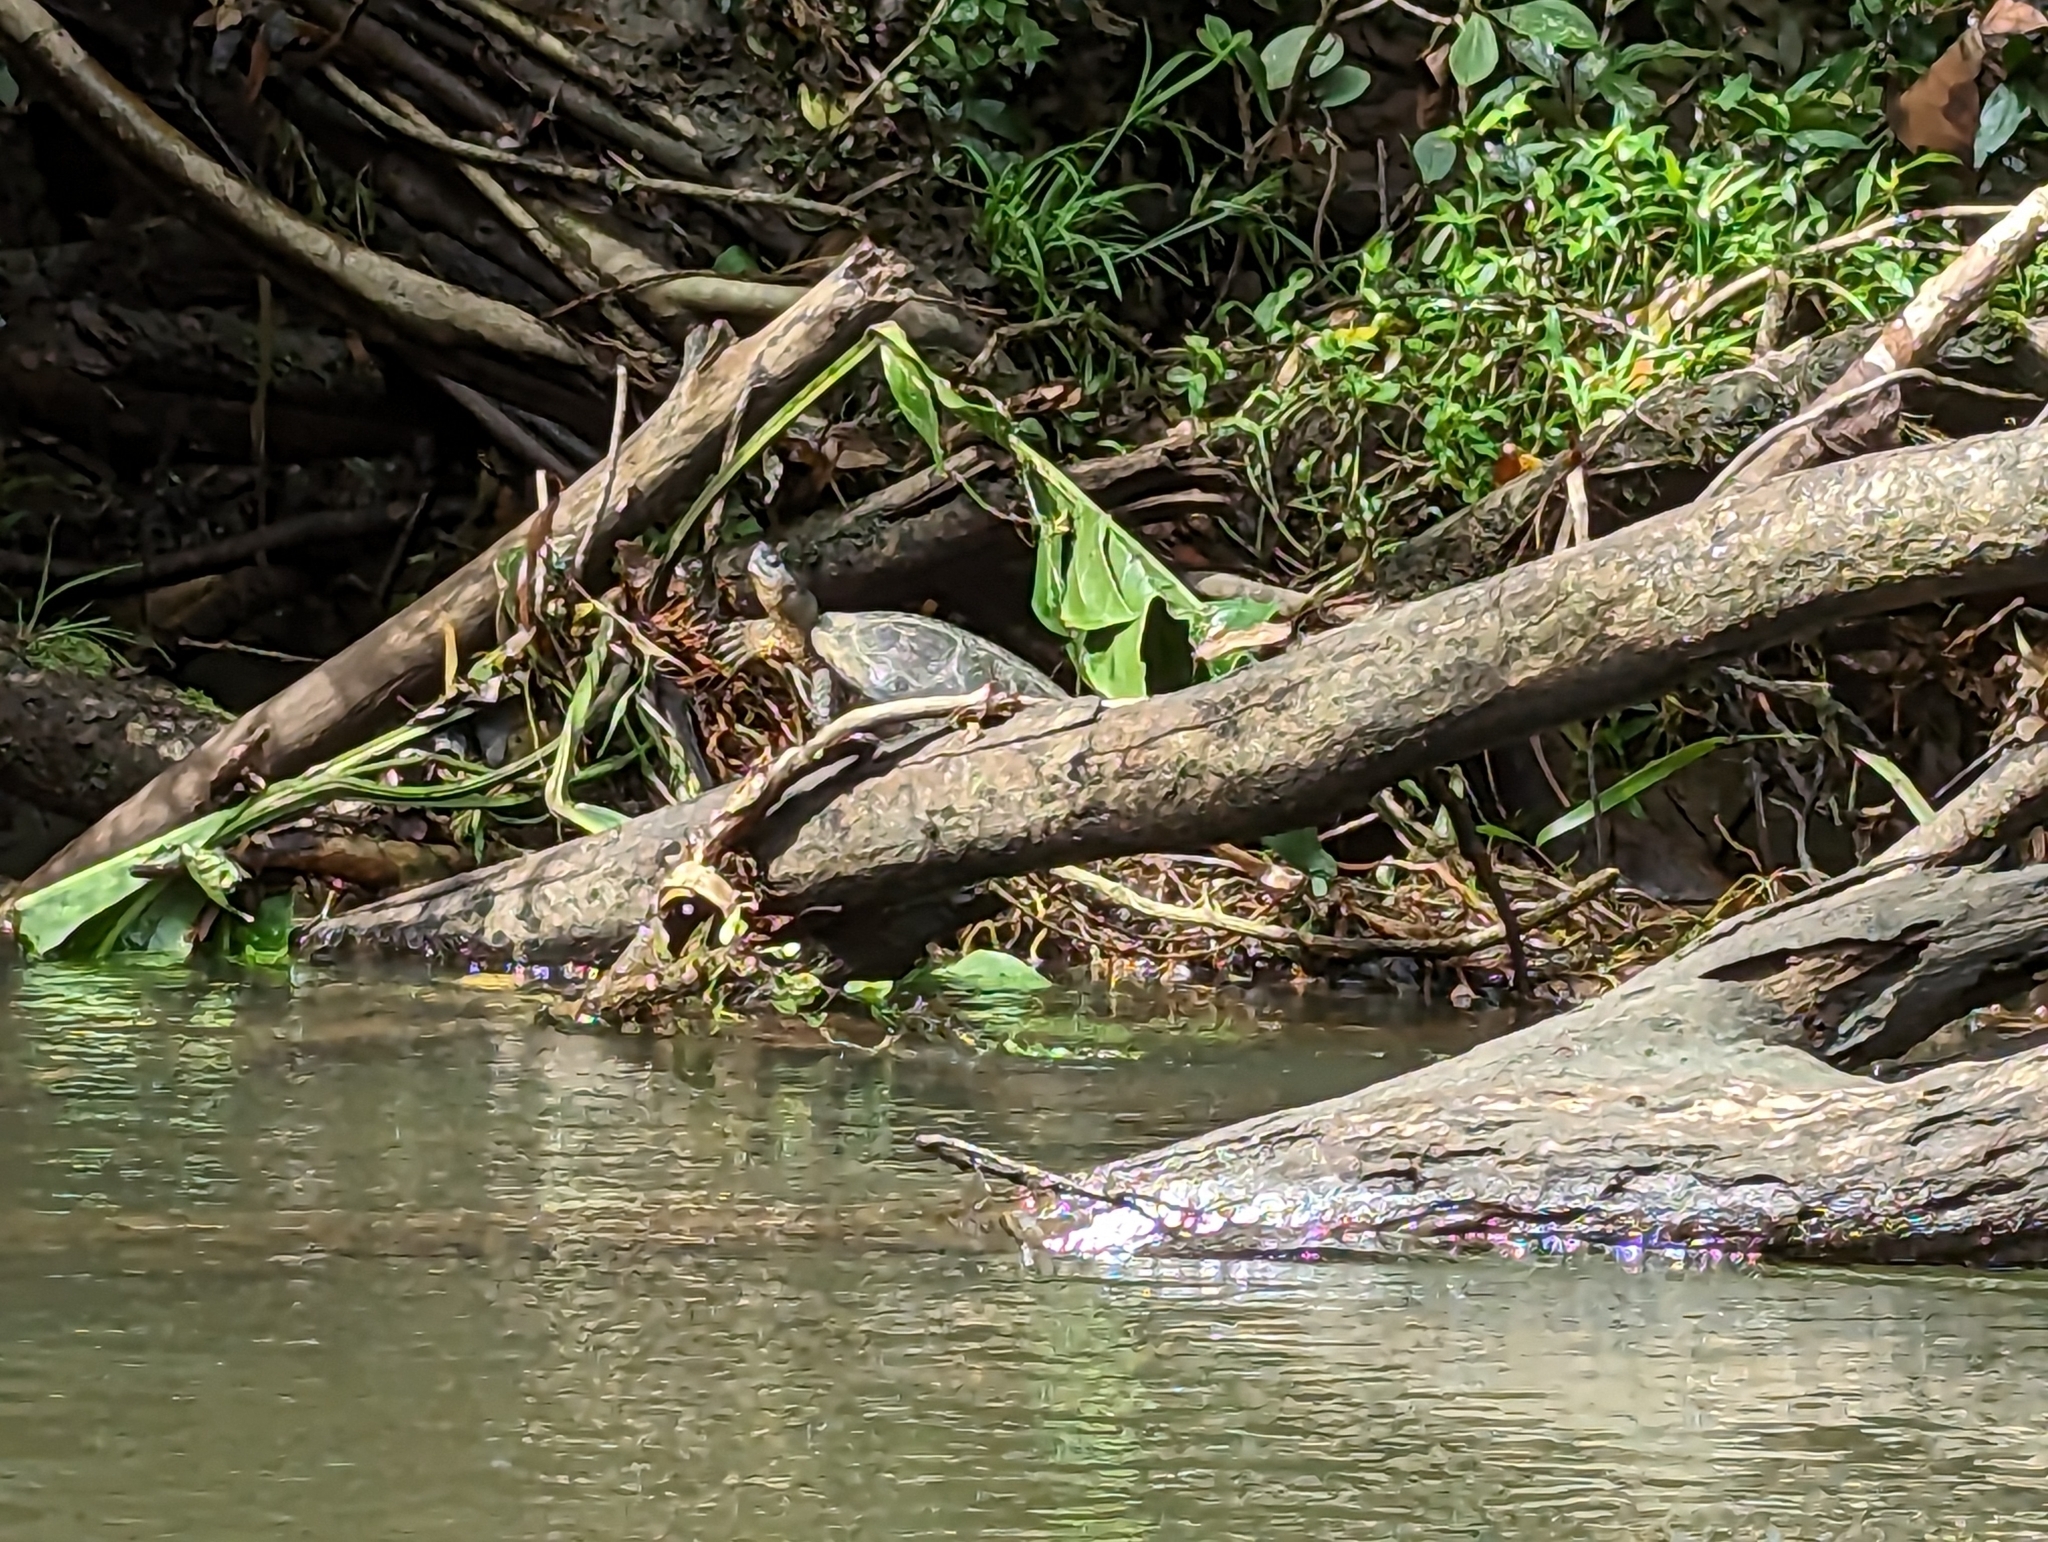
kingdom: Animalia
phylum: Chordata
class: Testudines
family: Geoemydidae
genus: Rhinoclemmys
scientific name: Rhinoclemmys funerea
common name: Black wood turtle
